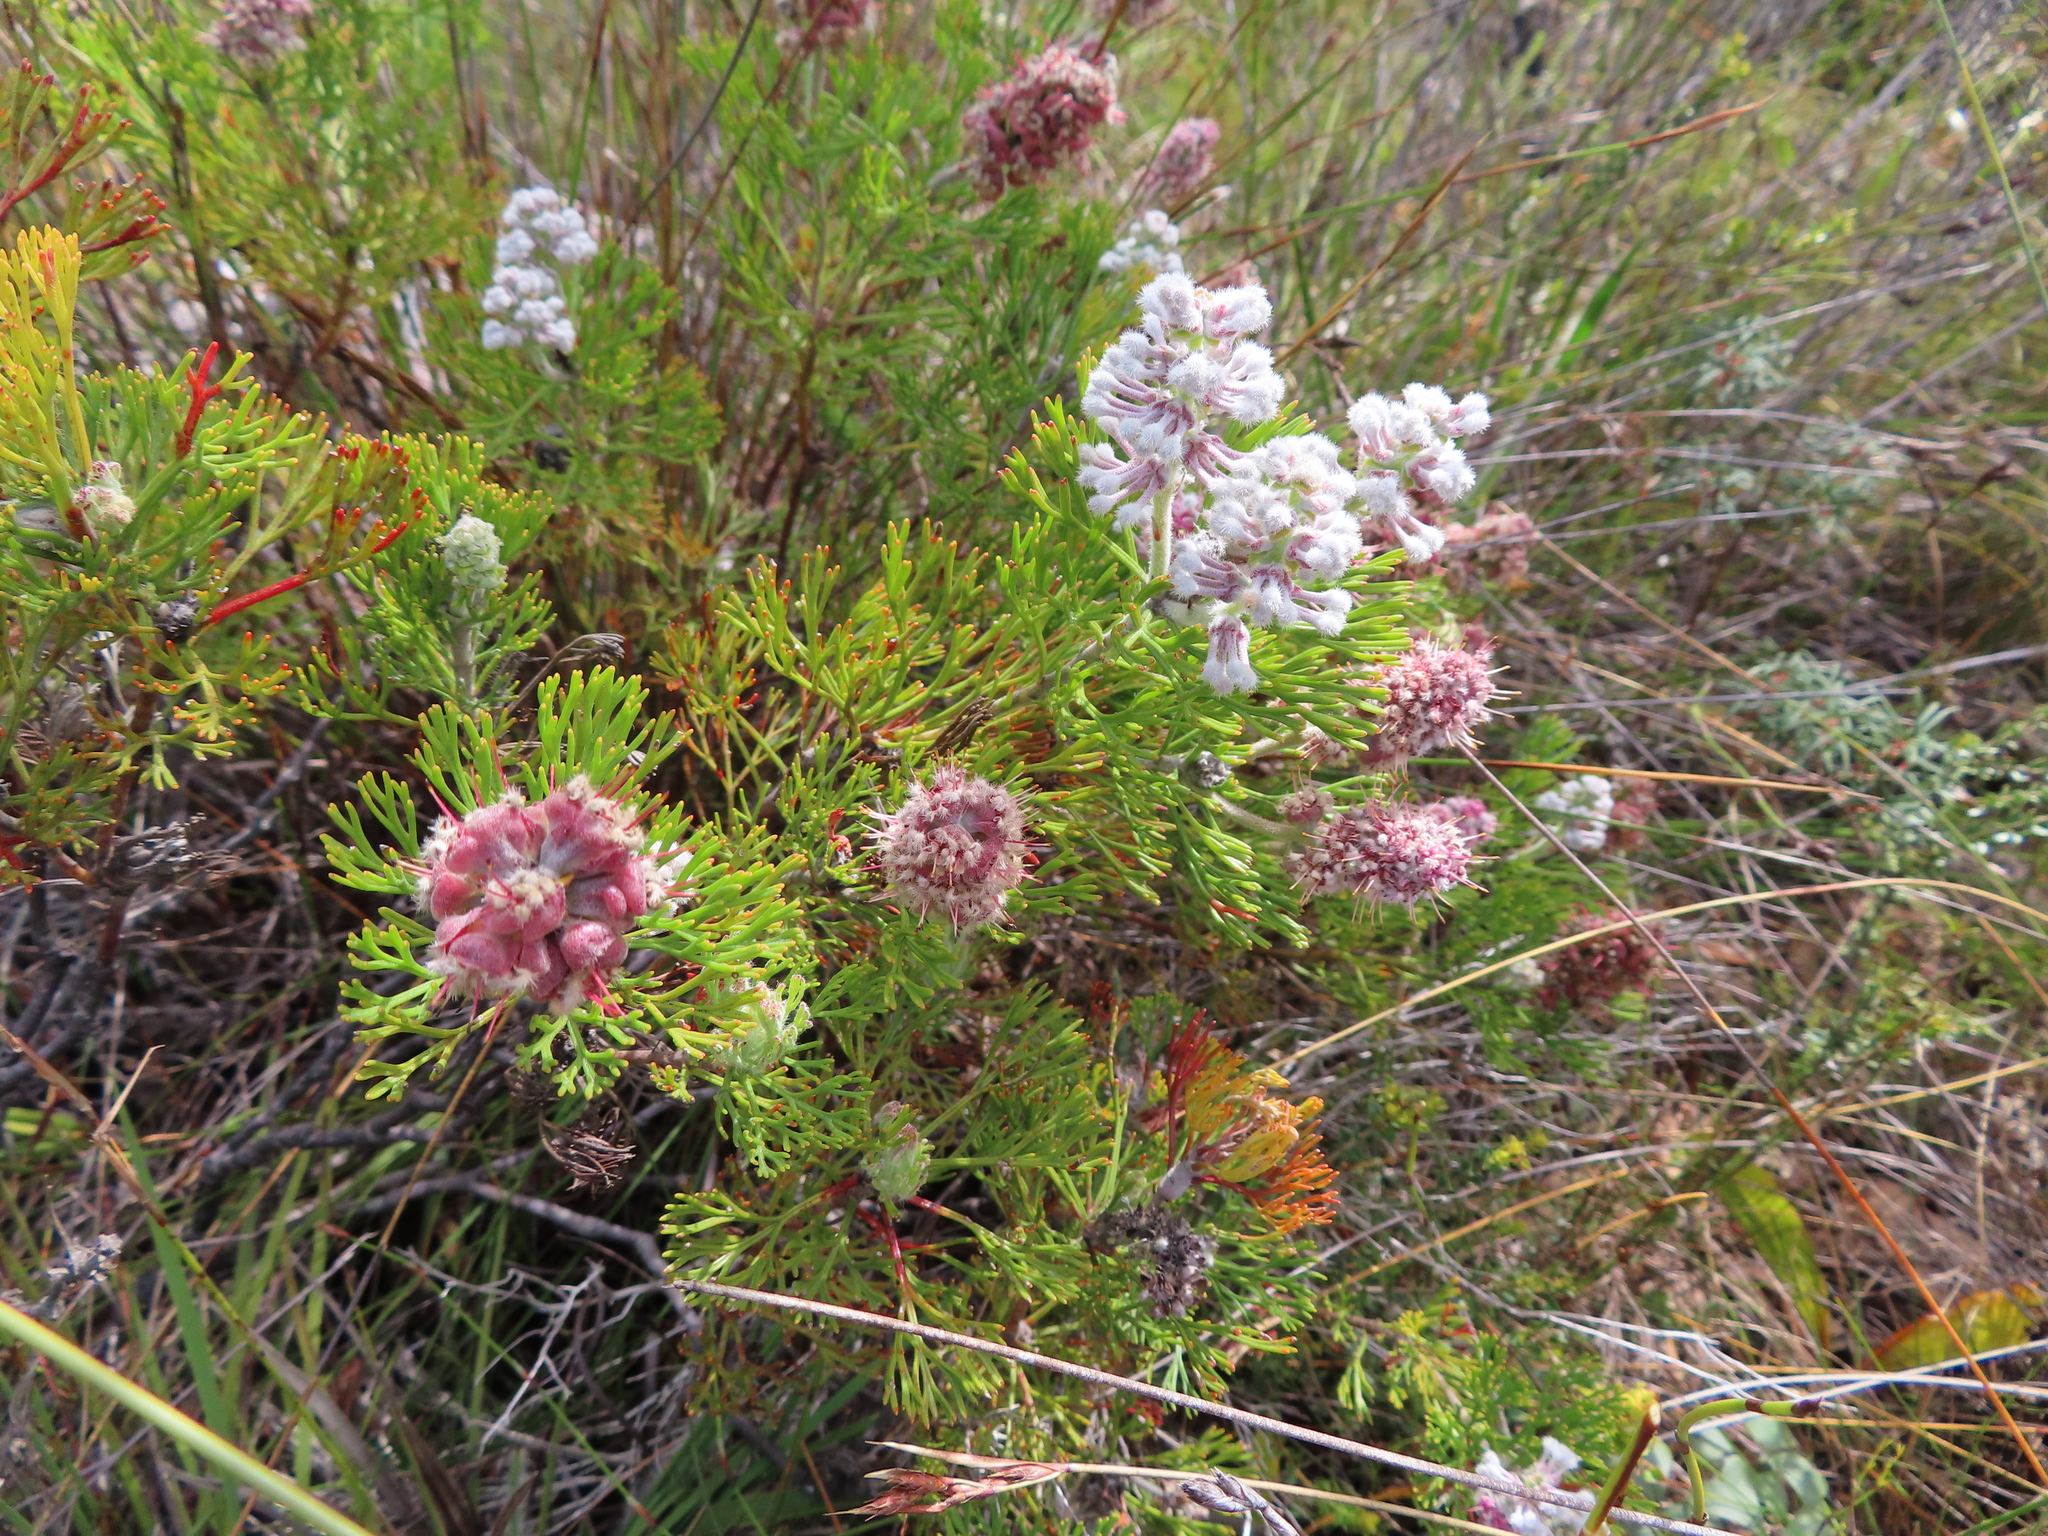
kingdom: Plantae
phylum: Tracheophyta
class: Magnoliopsida
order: Proteales
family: Proteaceae
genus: Paranomus
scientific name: Paranomus abrotanifolius
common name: Bredasdorp sceptre
